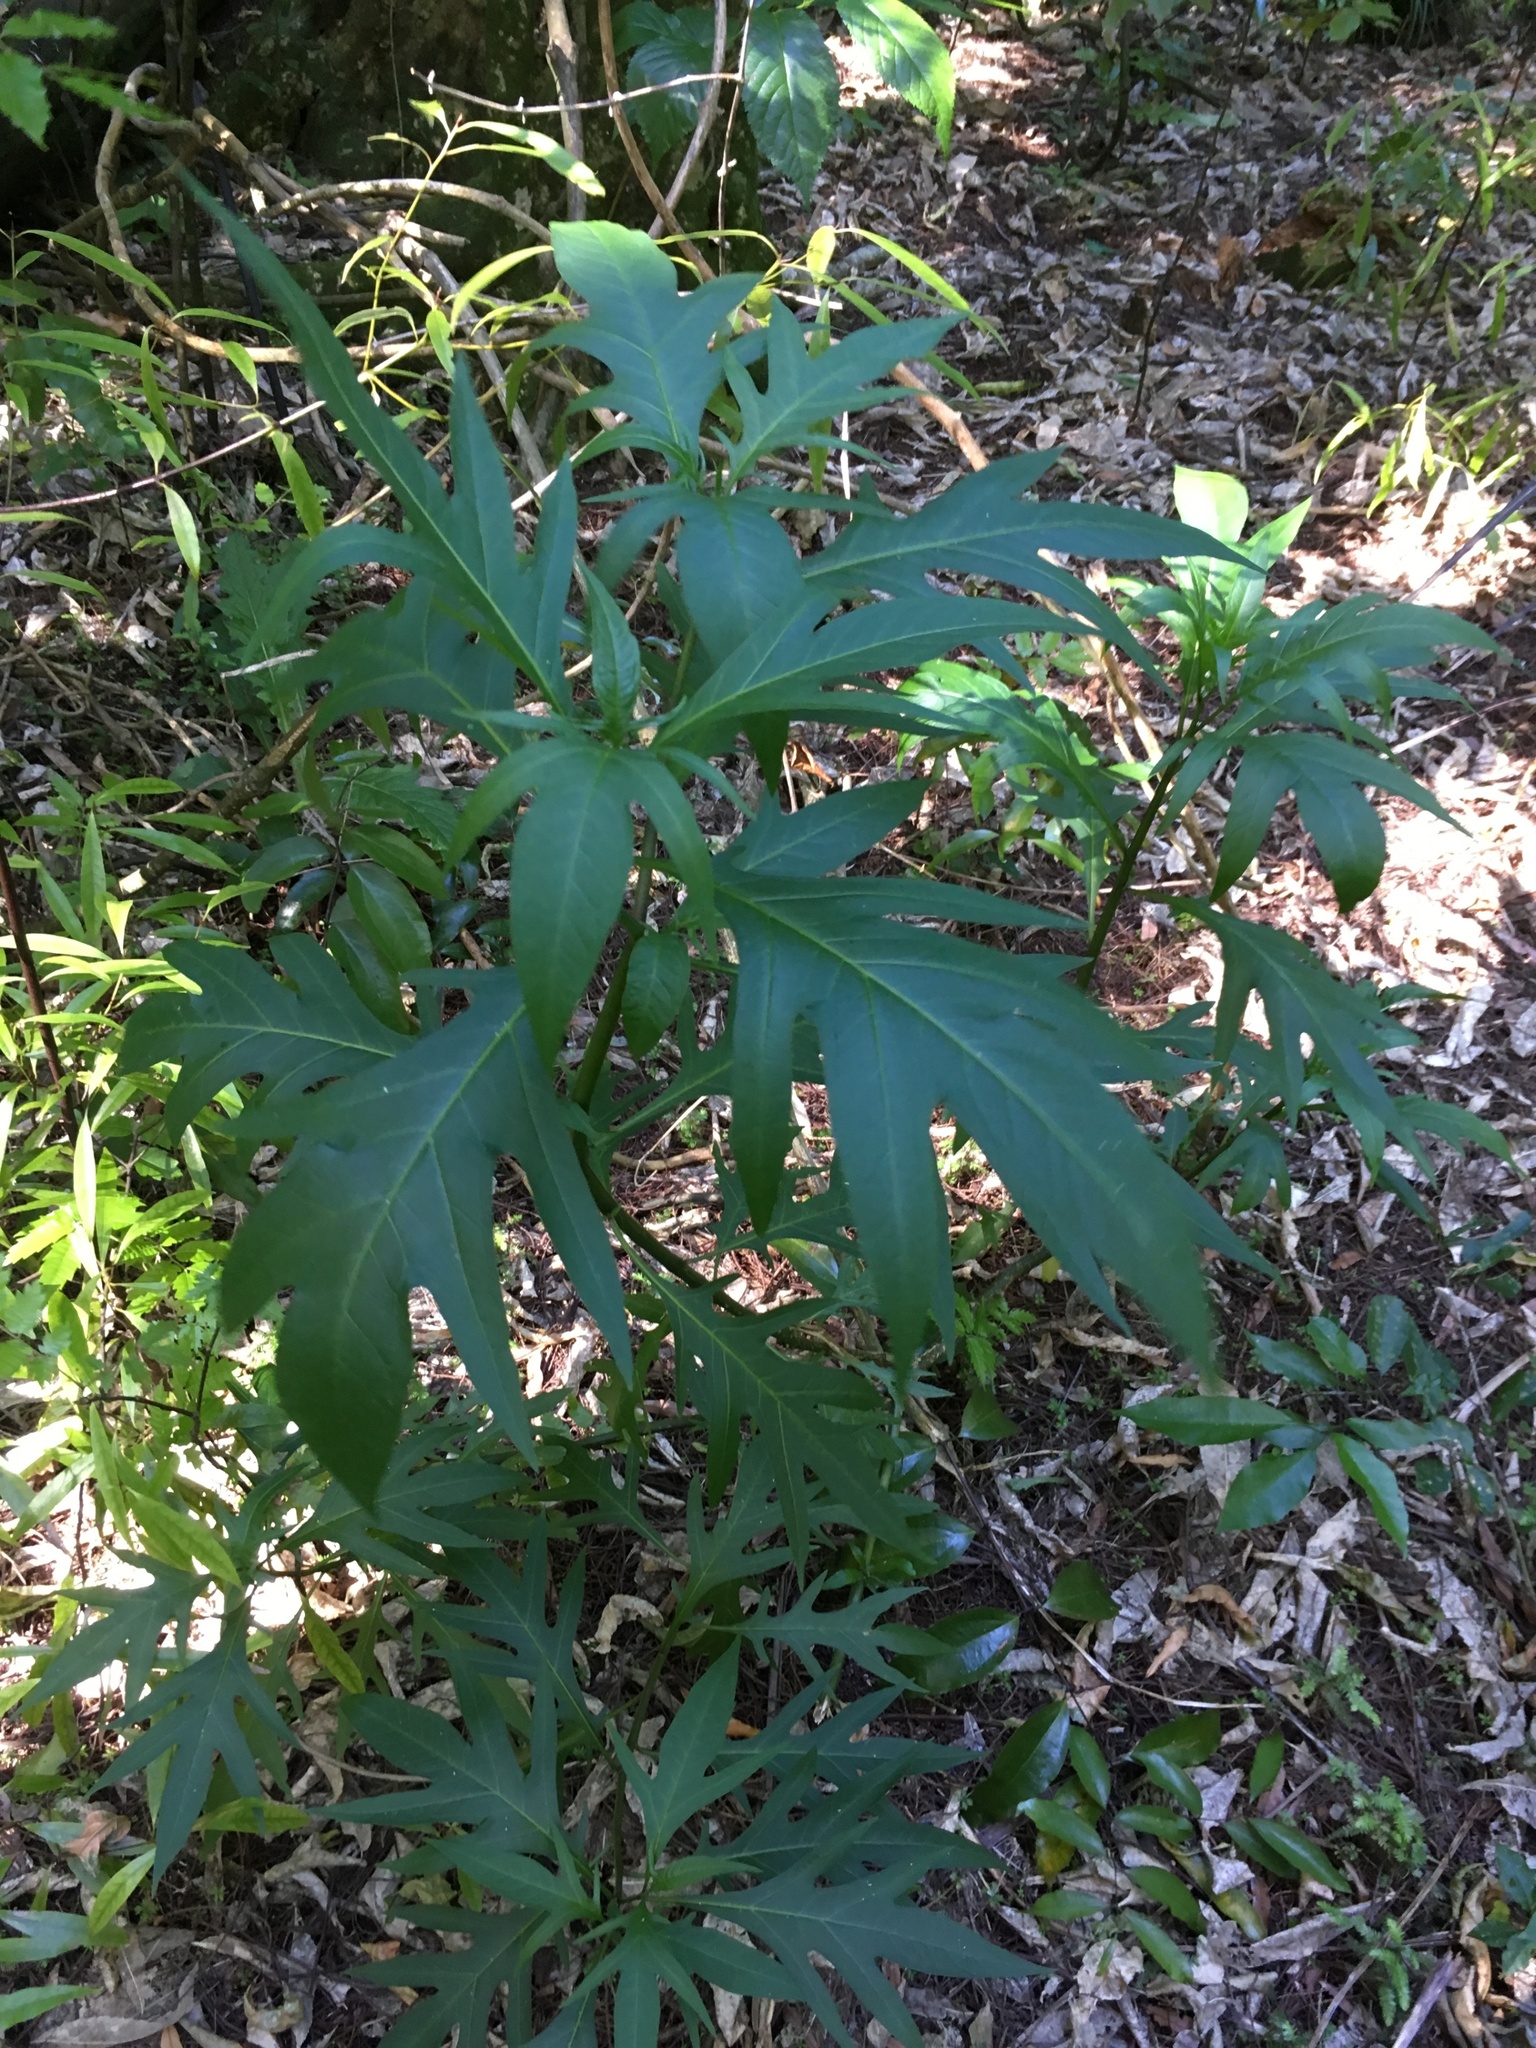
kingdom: Plantae
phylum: Tracheophyta
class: Magnoliopsida
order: Solanales
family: Solanaceae
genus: Solanum
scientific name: Solanum
